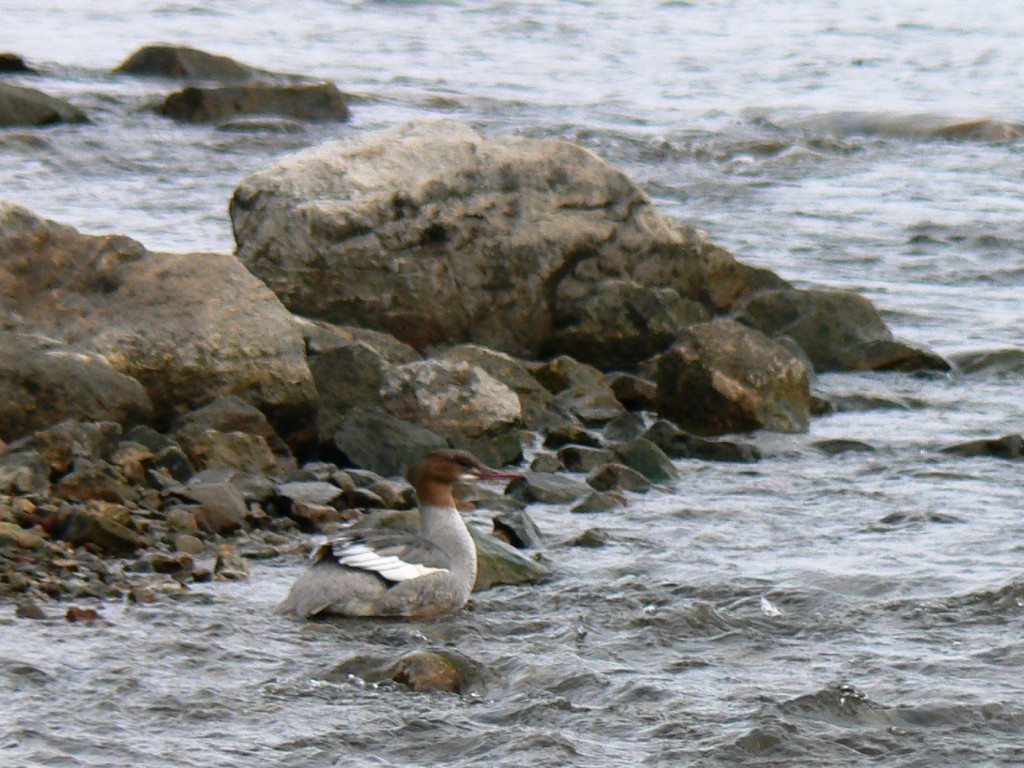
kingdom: Animalia
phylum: Chordata
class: Aves
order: Anseriformes
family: Anatidae
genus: Mergus
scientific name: Mergus merganser
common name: Common merganser
